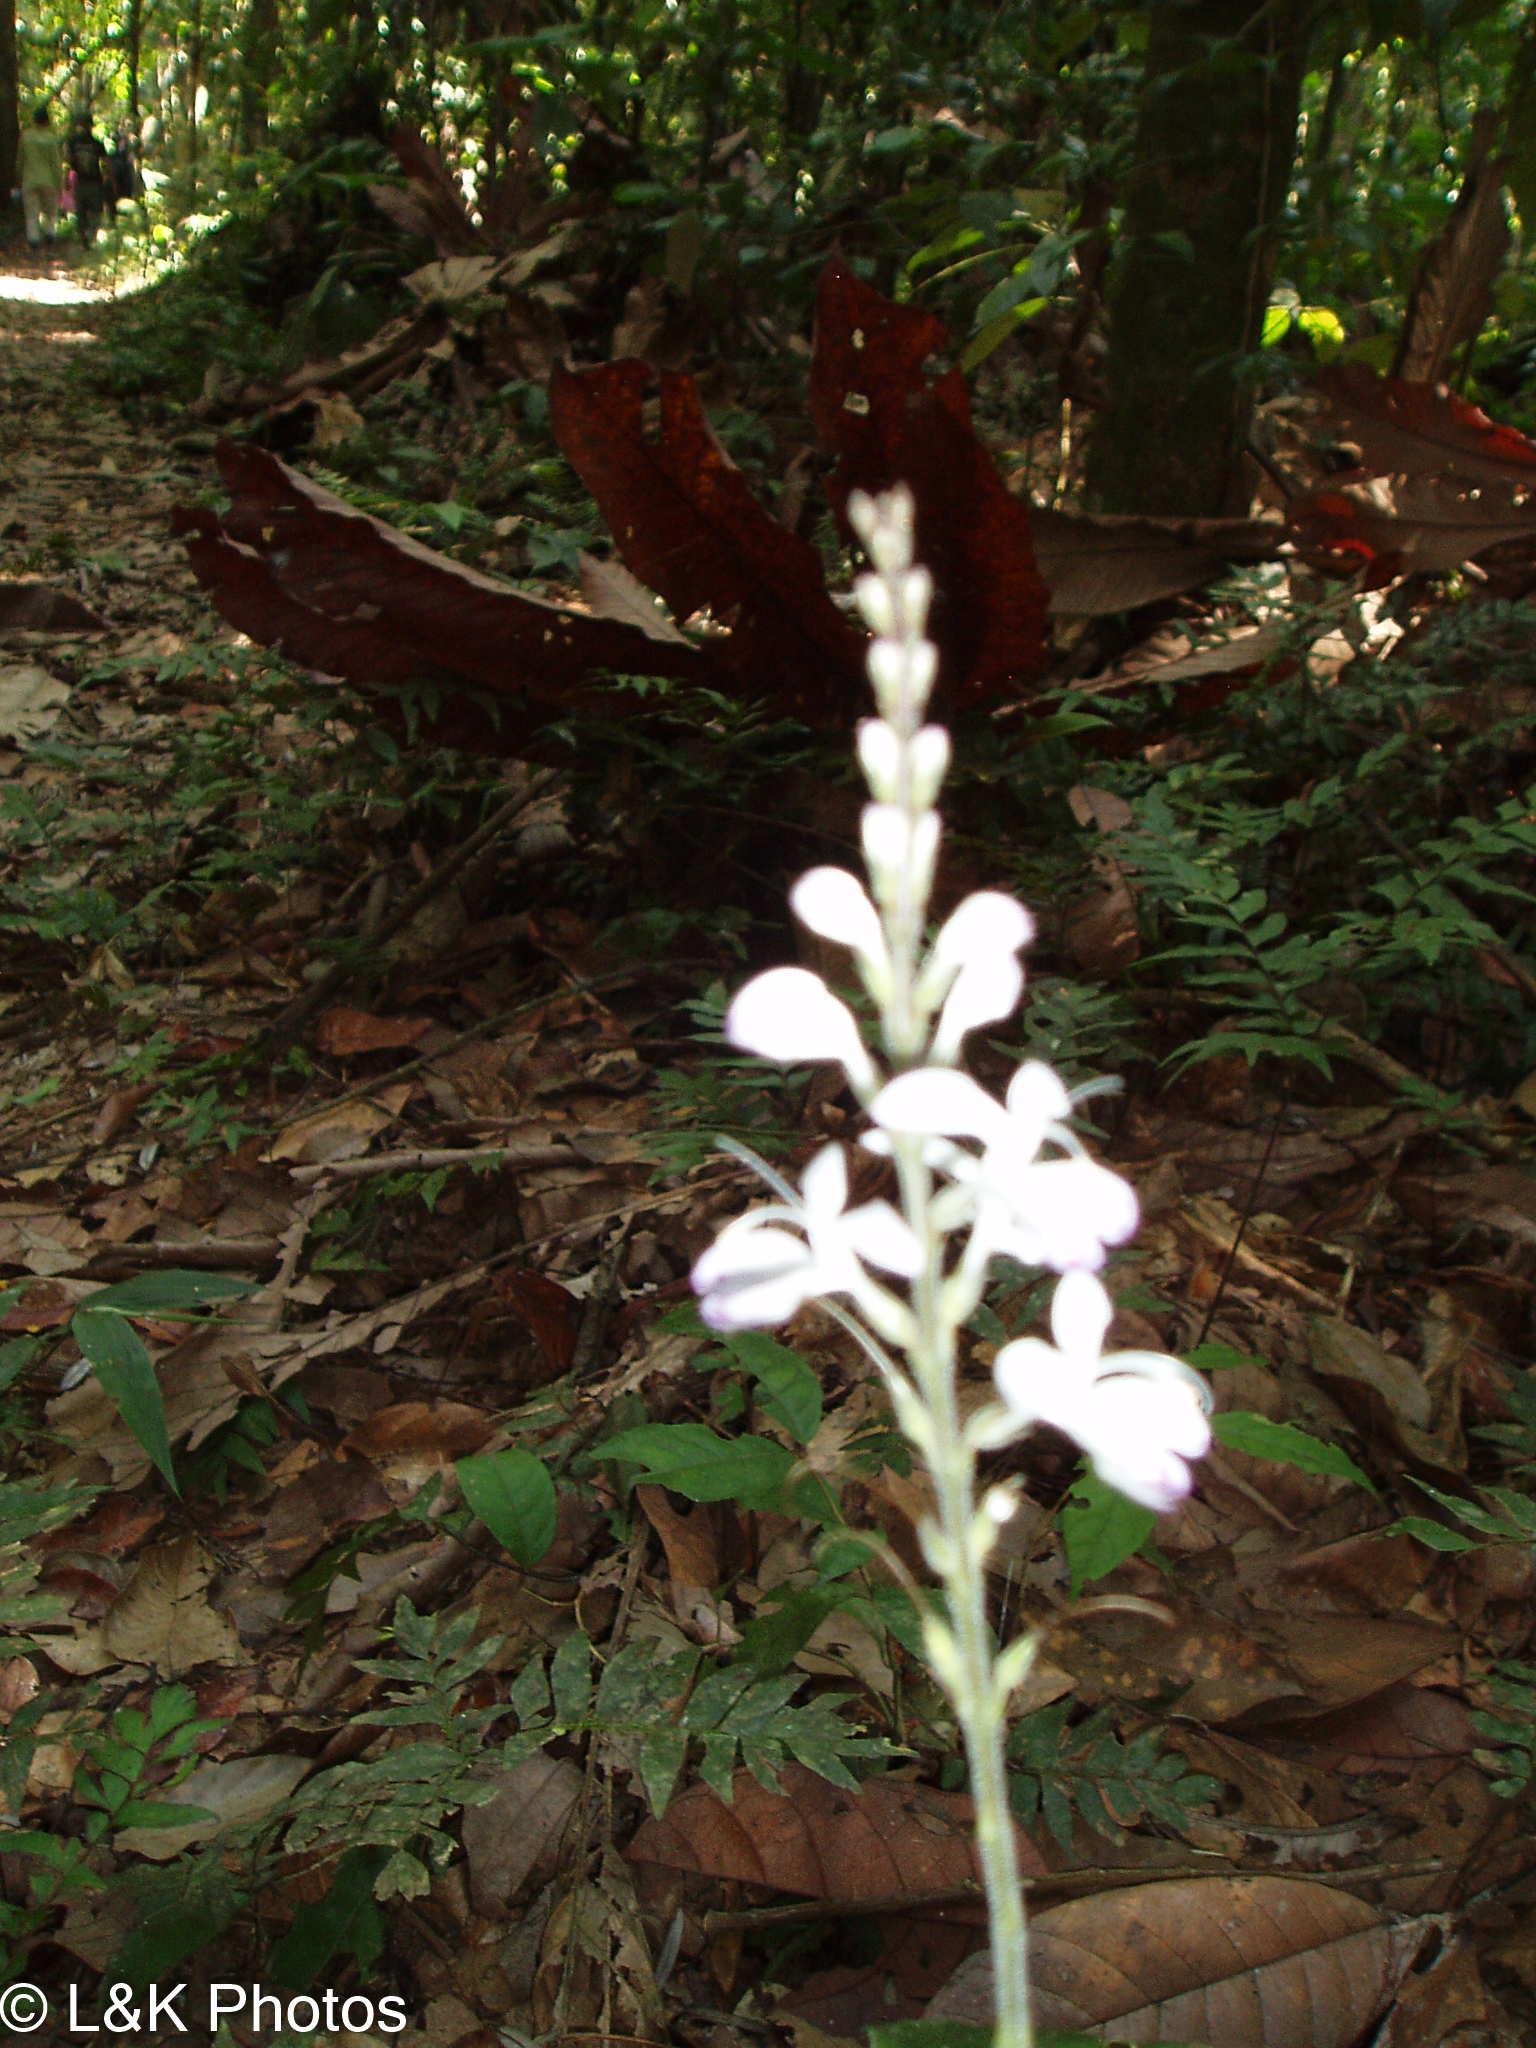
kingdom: Plantae
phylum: Tracheophyta
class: Magnoliopsida
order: Lamiales
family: Acanthaceae
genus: Pulchranthus
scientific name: Pulchranthus adenostachyus
